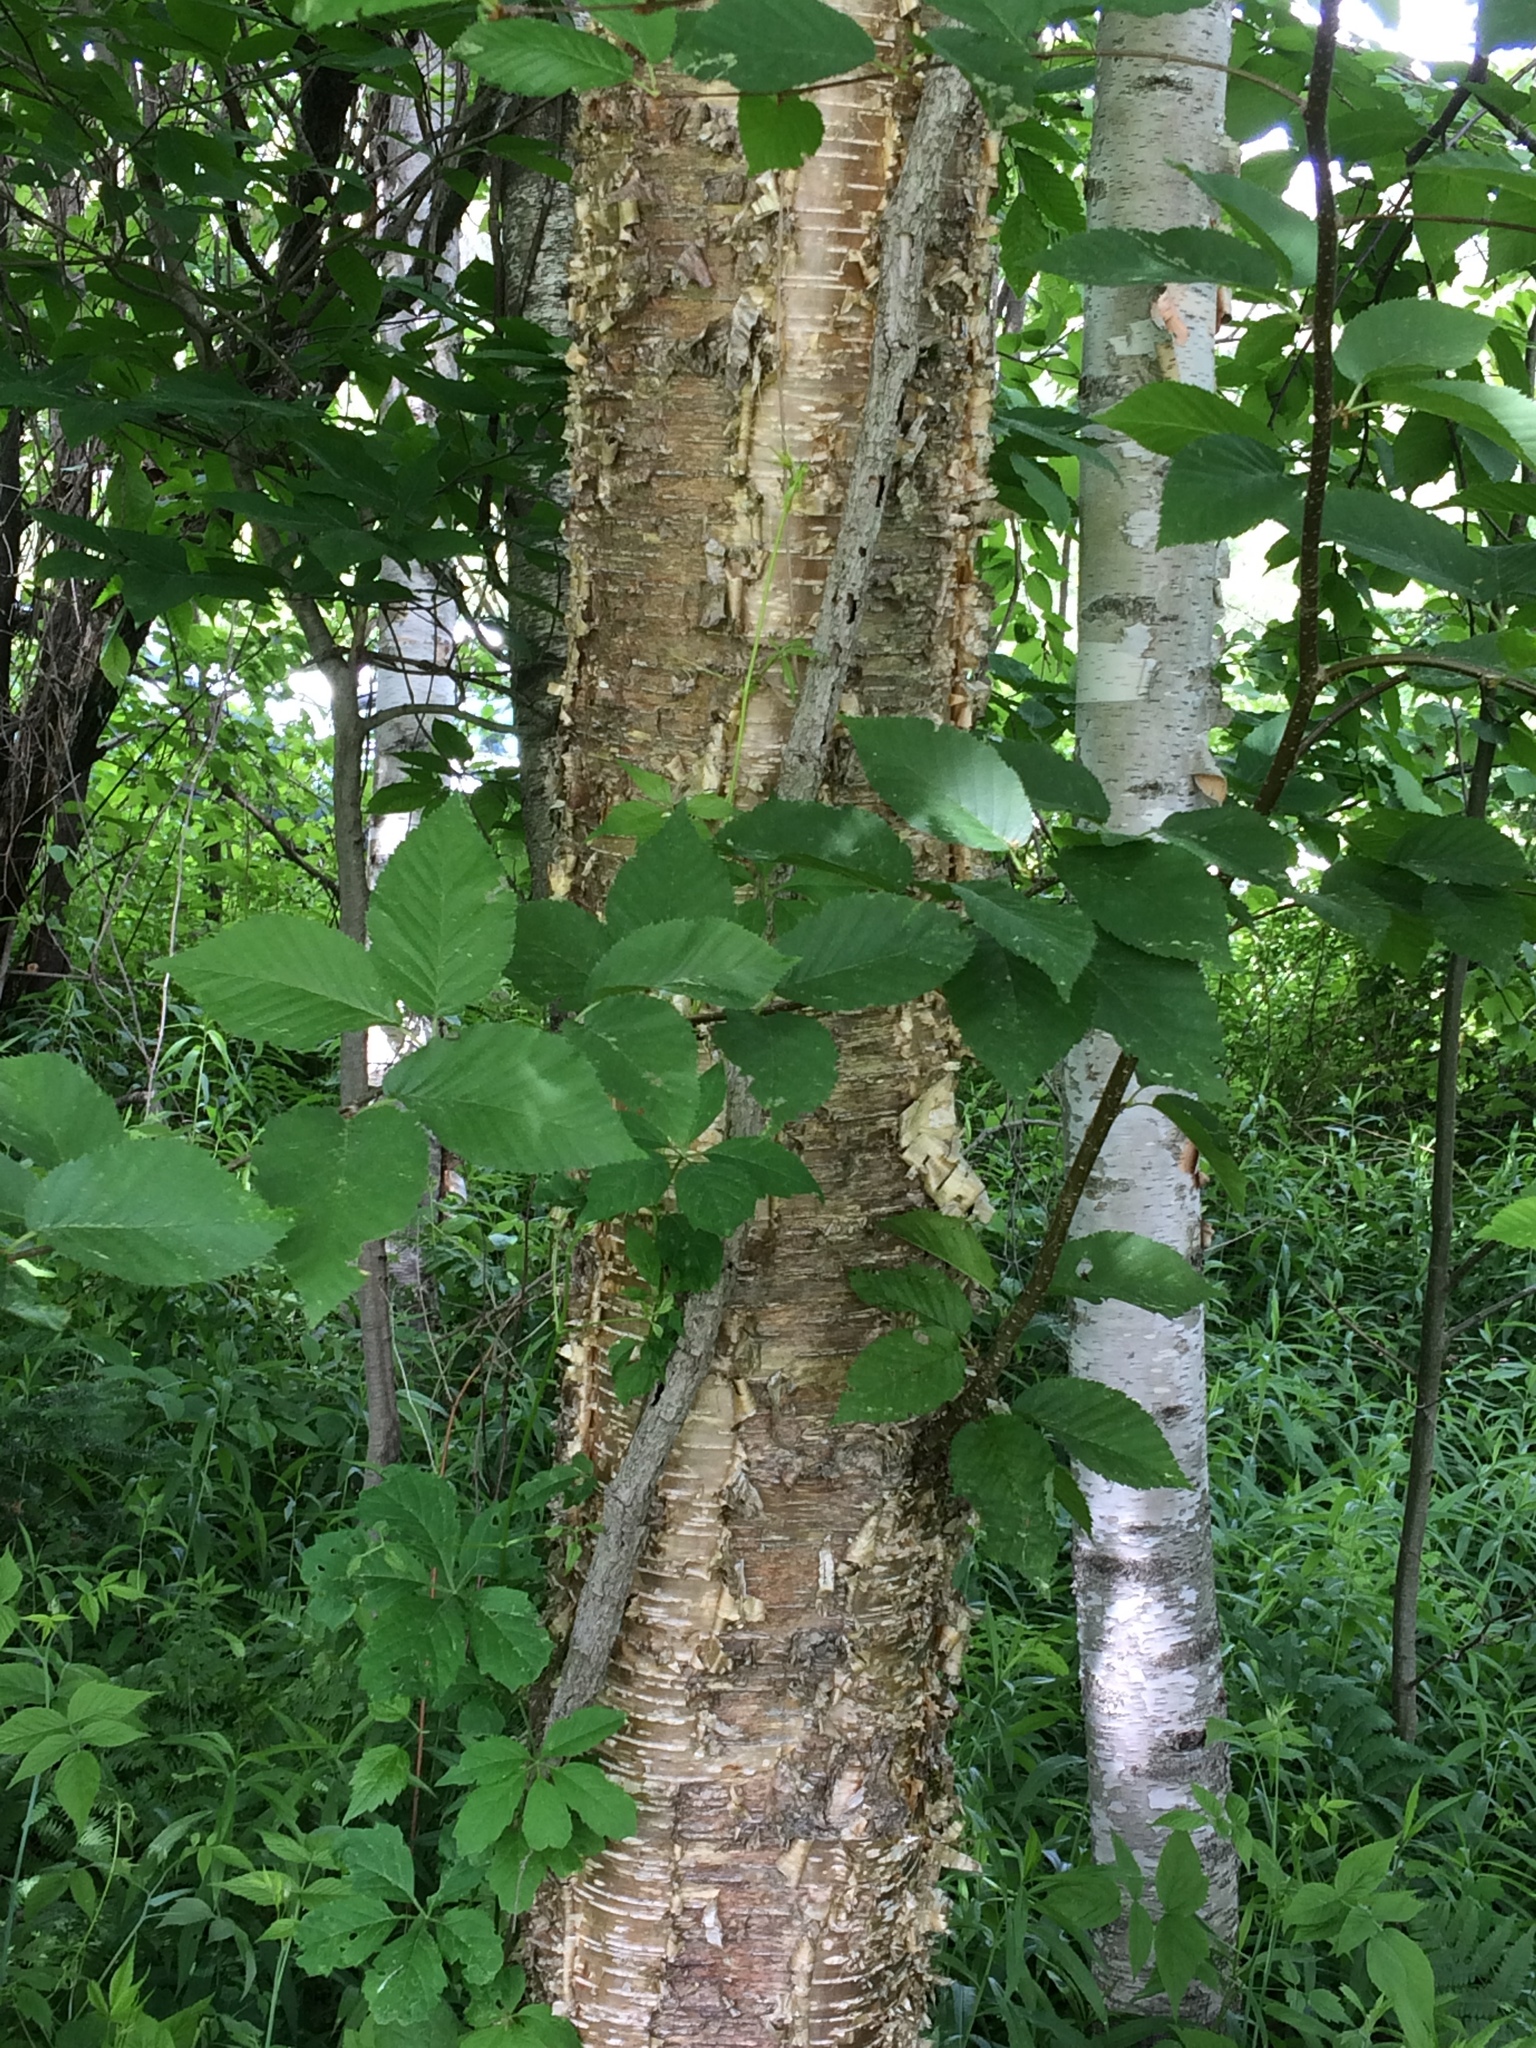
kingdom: Plantae
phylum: Tracheophyta
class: Magnoliopsida
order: Fagales
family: Betulaceae
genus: Betula
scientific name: Betula alleghaniensis
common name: Yellow birch
